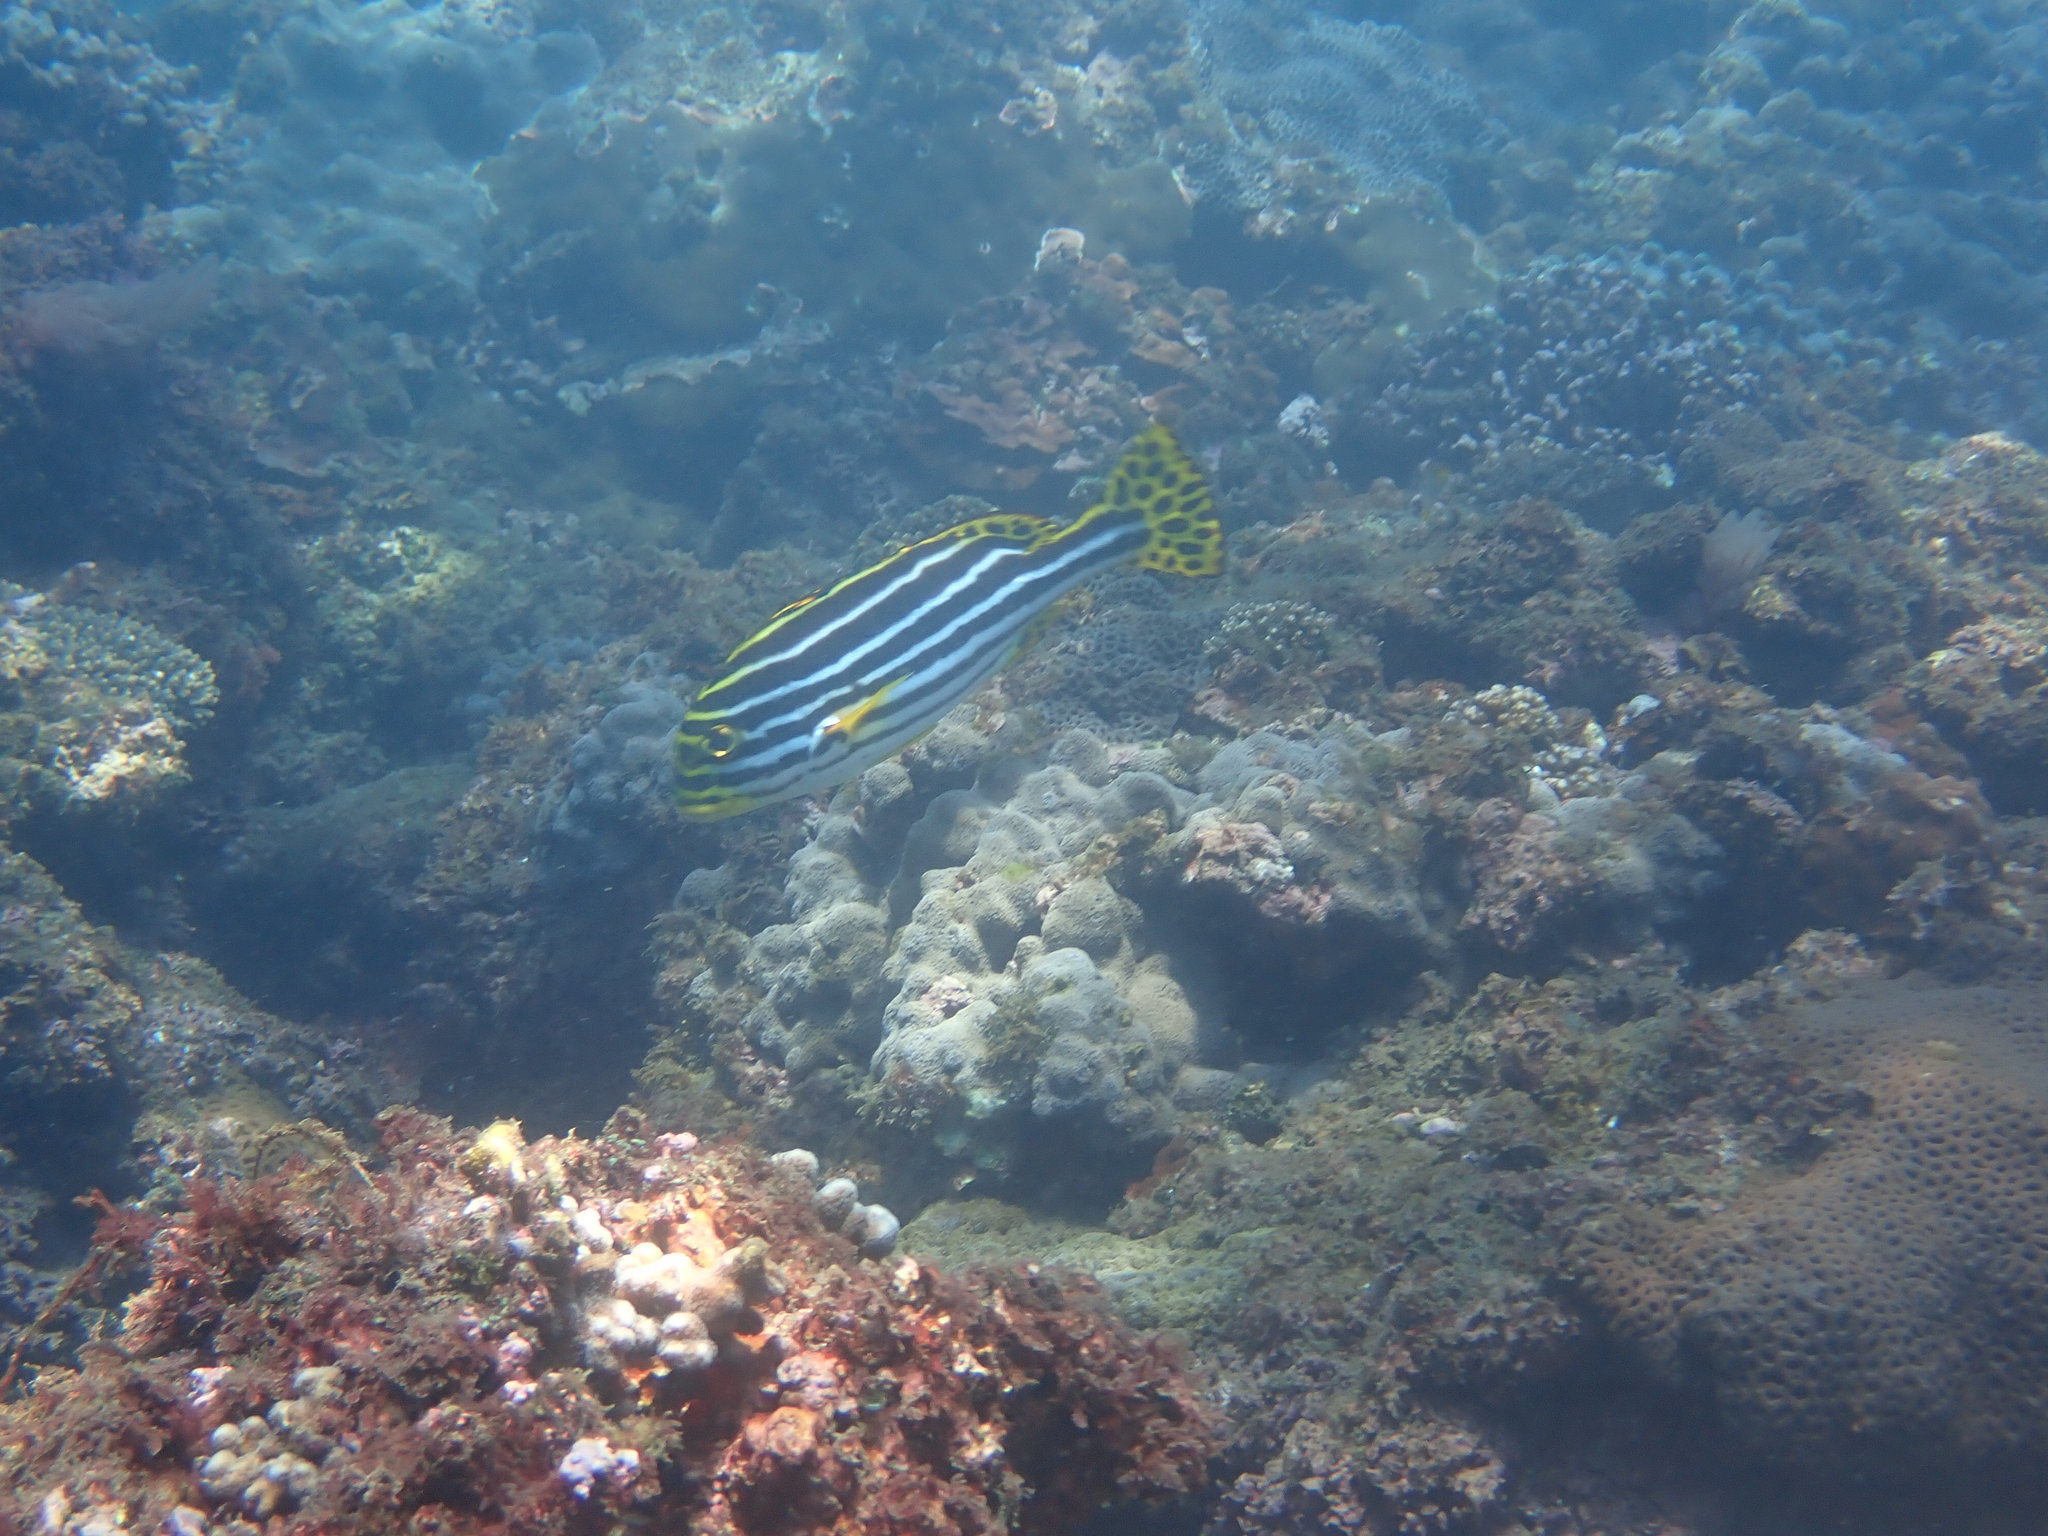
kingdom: Animalia
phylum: Chordata
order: Perciformes
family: Haemulidae
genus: Plectorhinchus
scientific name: Plectorhinchus vittatus
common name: Oriental sweetlips
